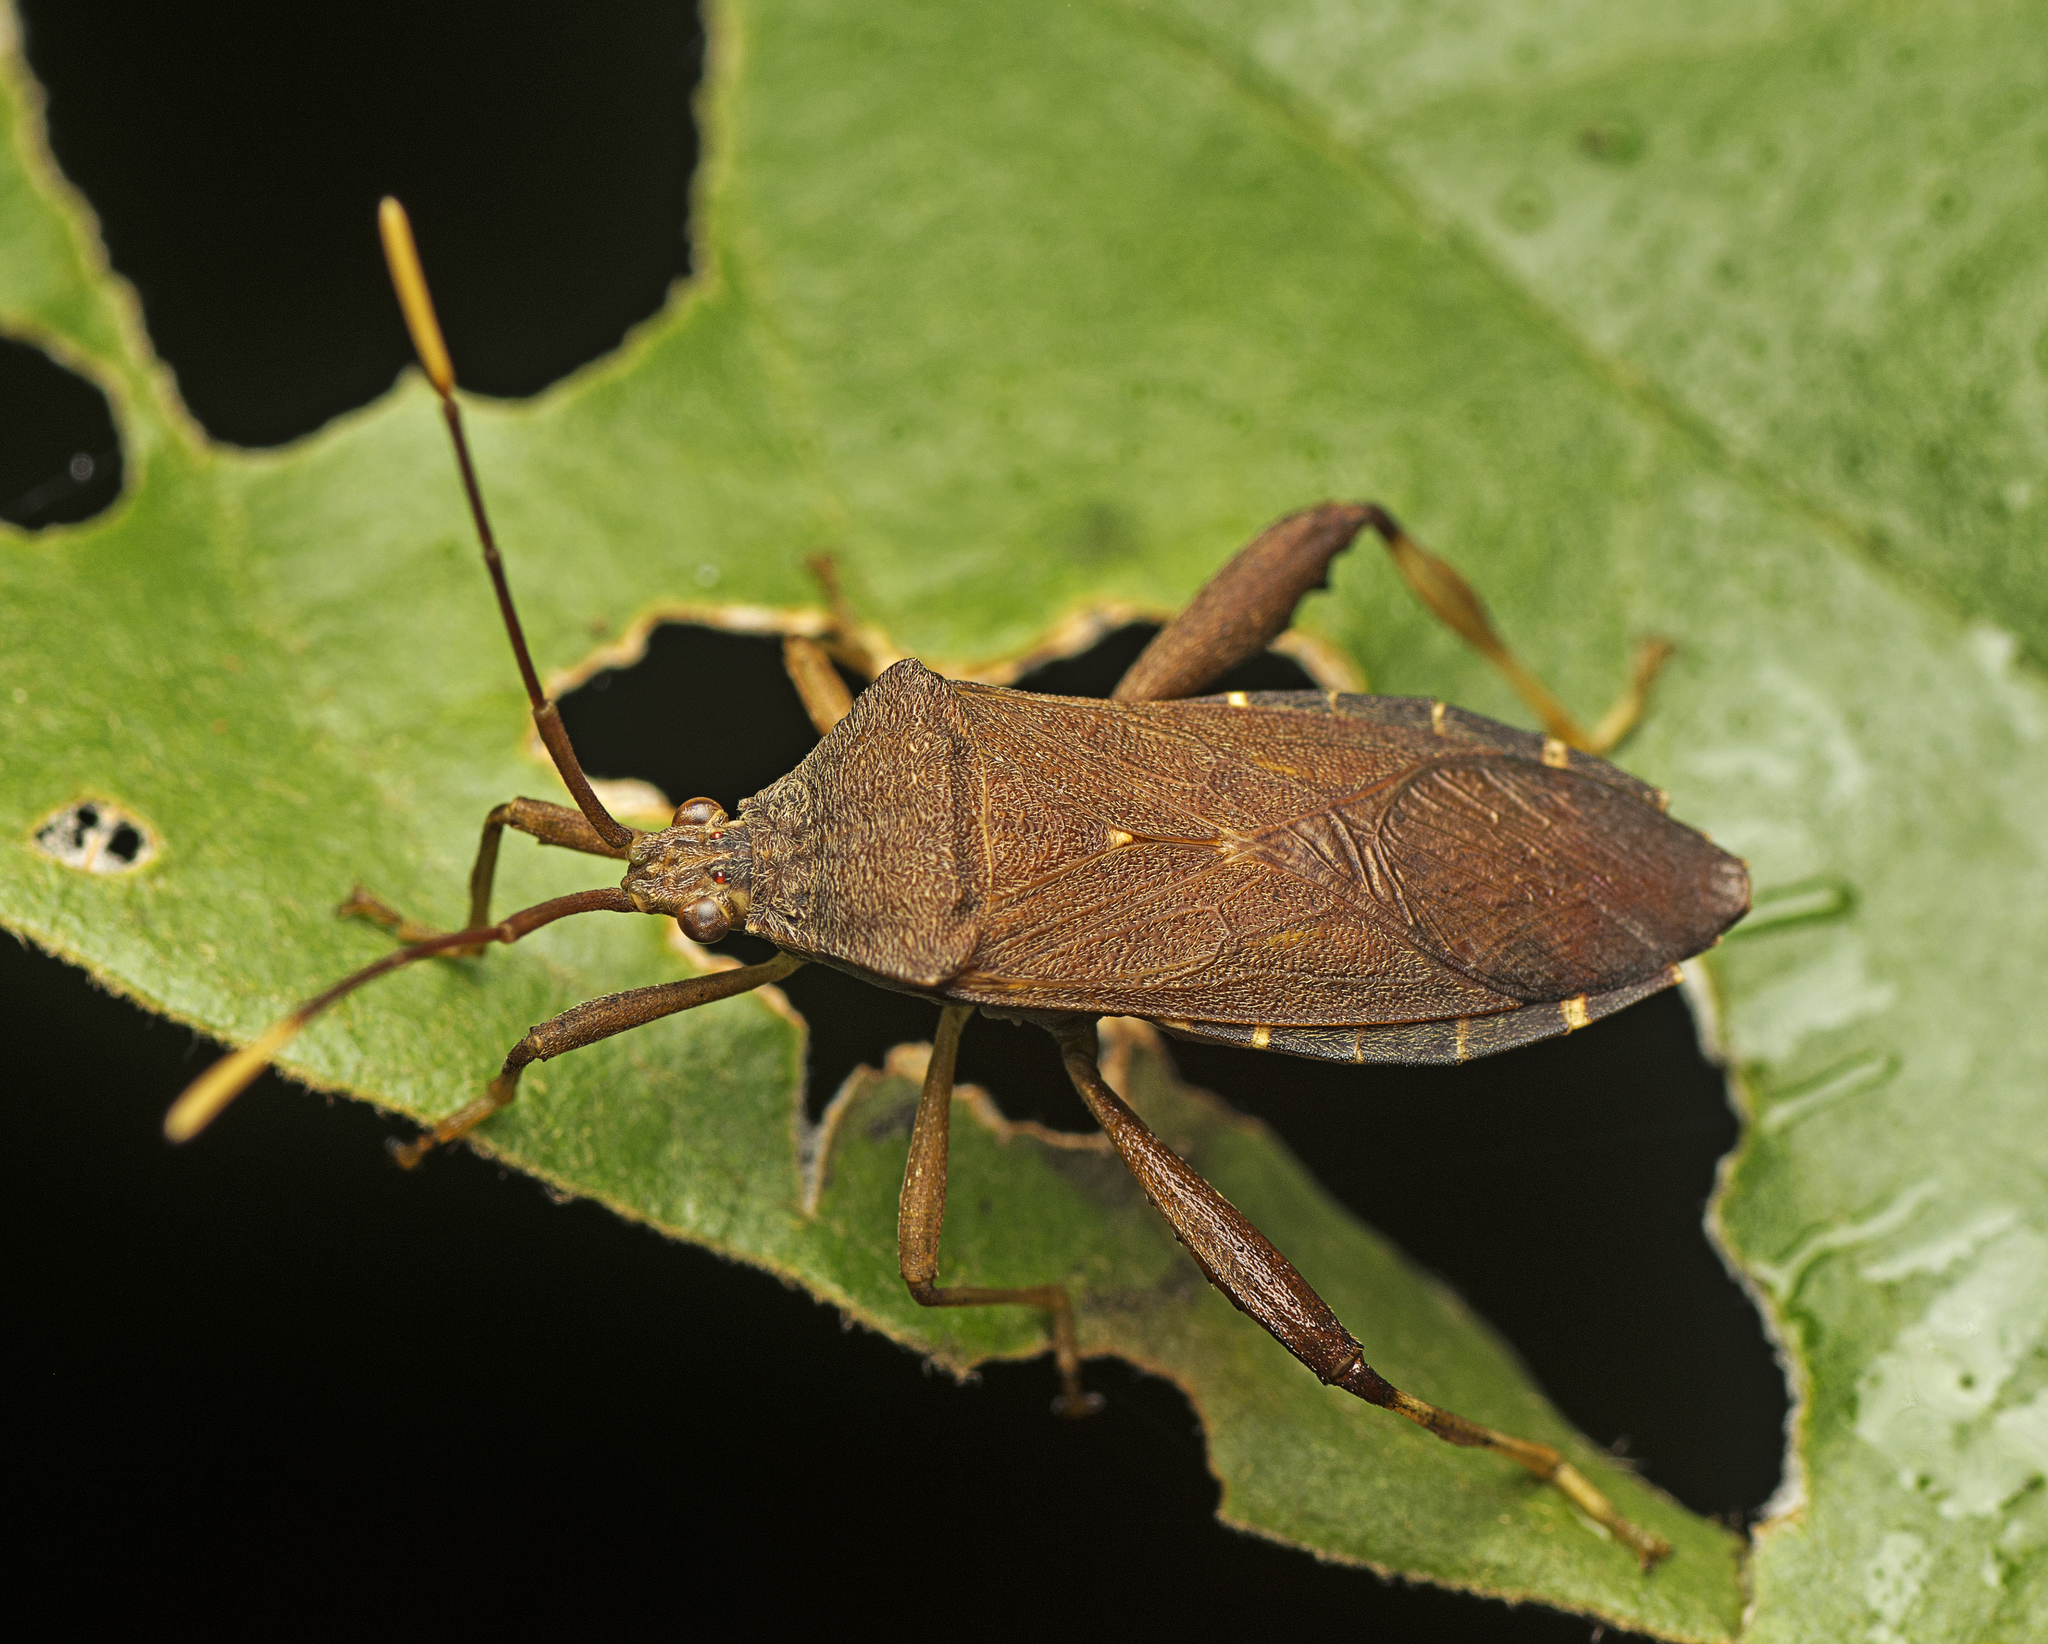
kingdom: Animalia
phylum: Arthropoda
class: Insecta
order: Hemiptera
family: Coreidae
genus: Tambourina
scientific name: Tambourina kelsalli
